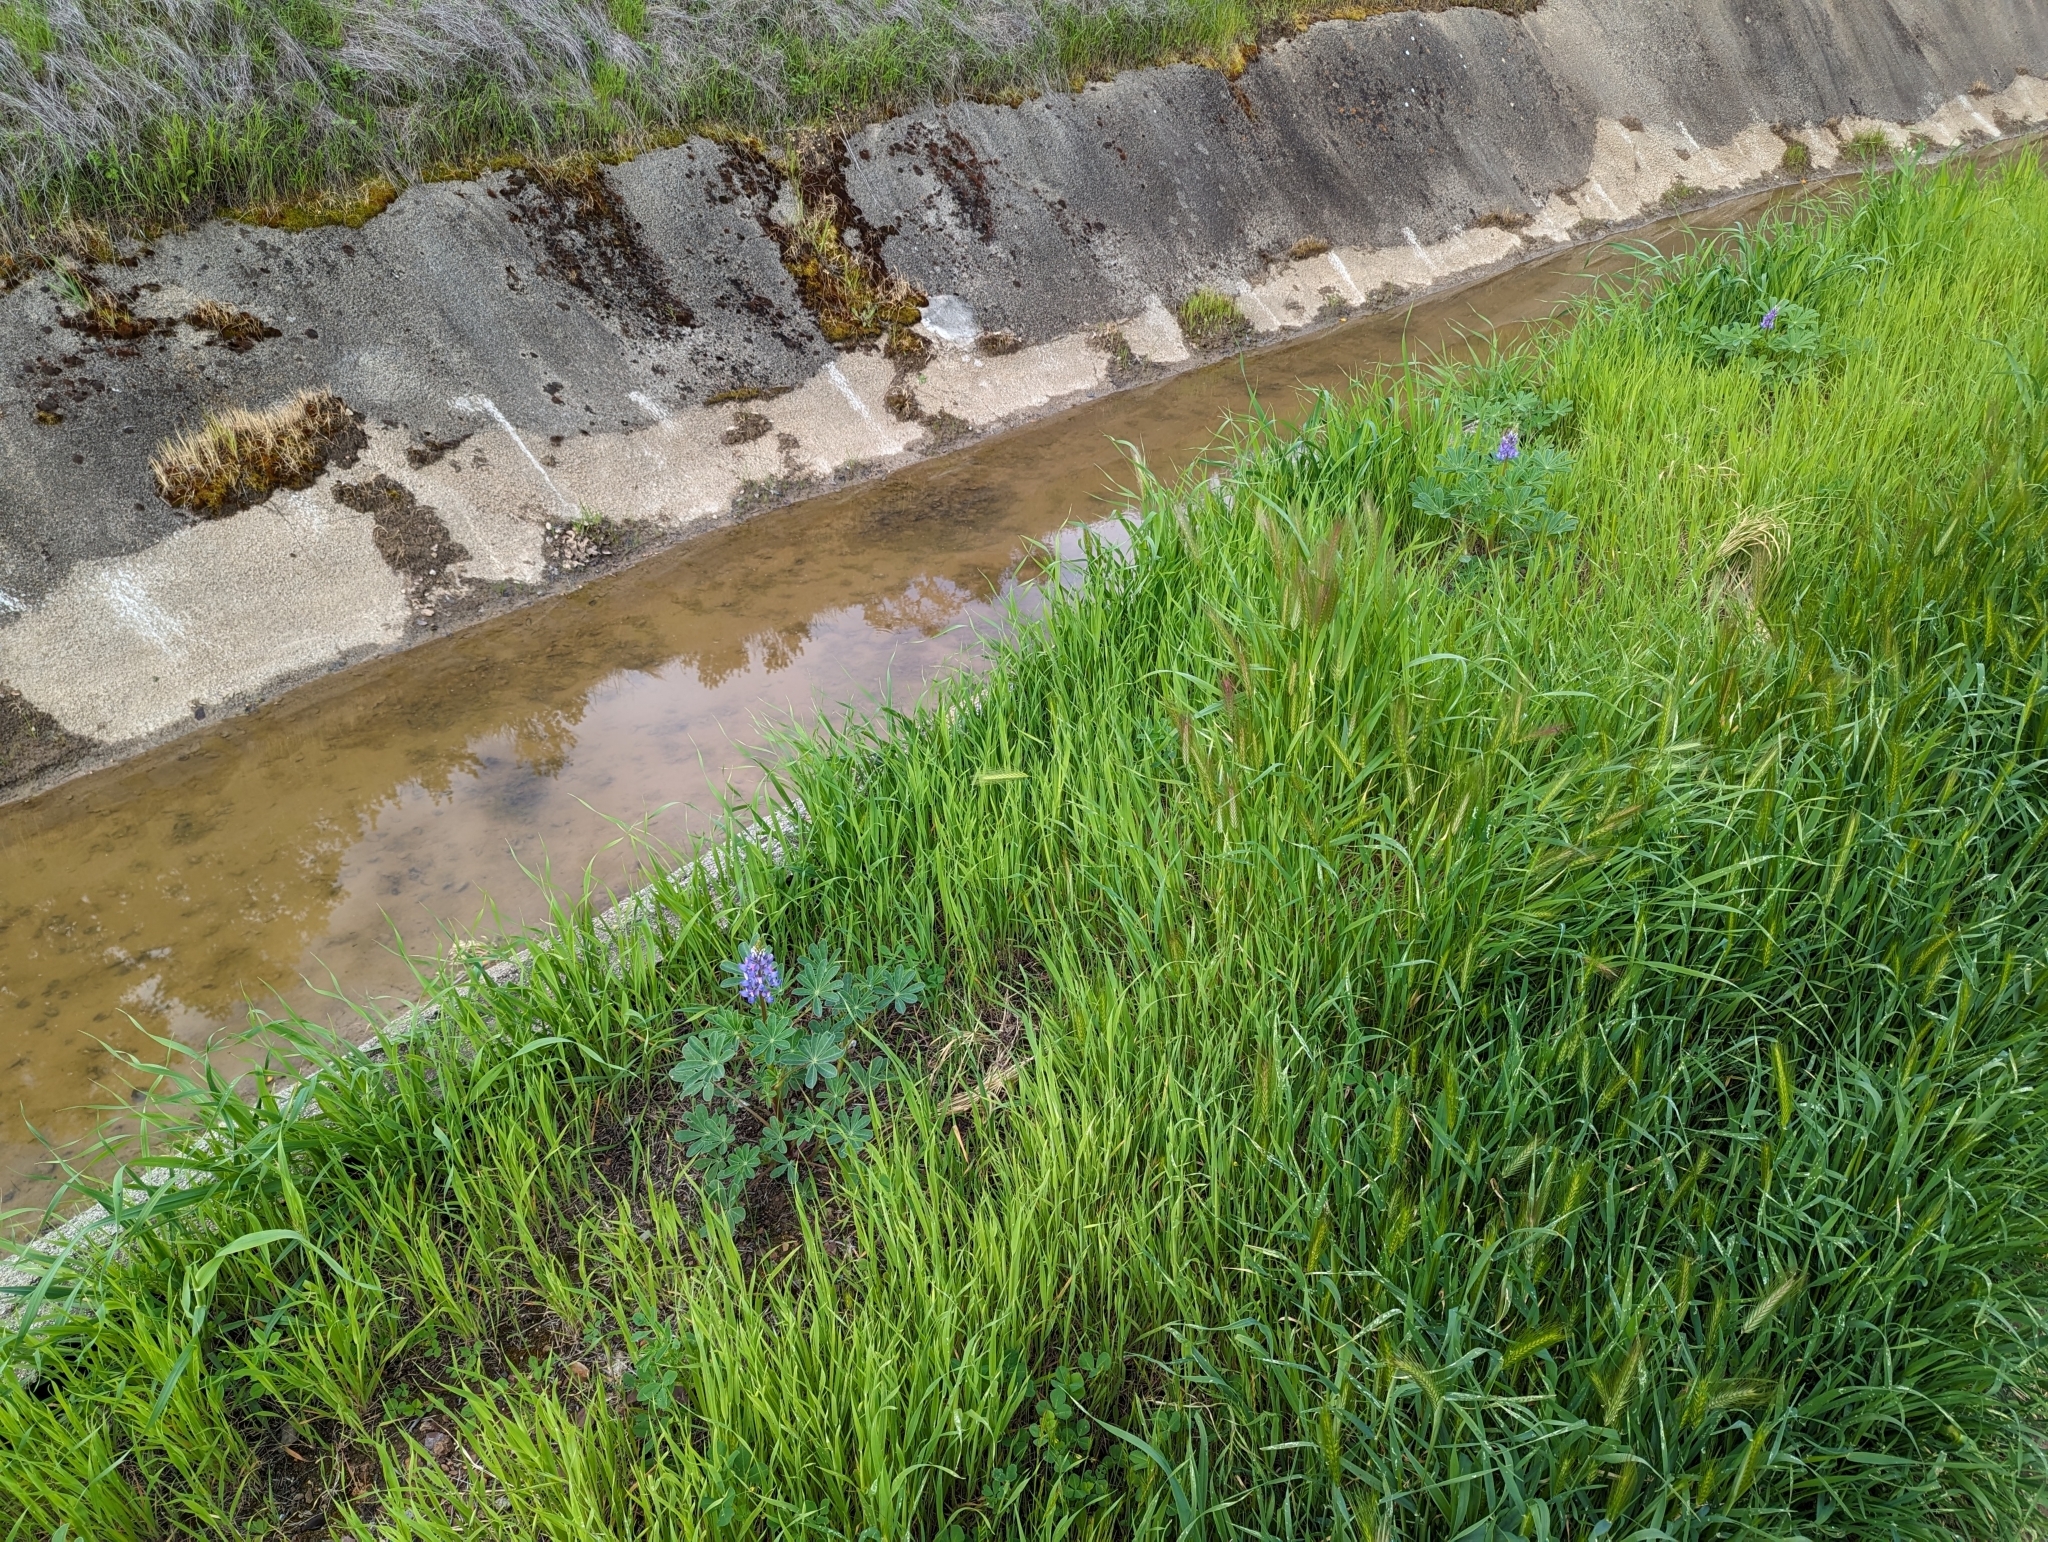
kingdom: Plantae
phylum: Tracheophyta
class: Magnoliopsida
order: Fabales
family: Fabaceae
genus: Lupinus
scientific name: Lupinus succulentus
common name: Arroyo lupine
